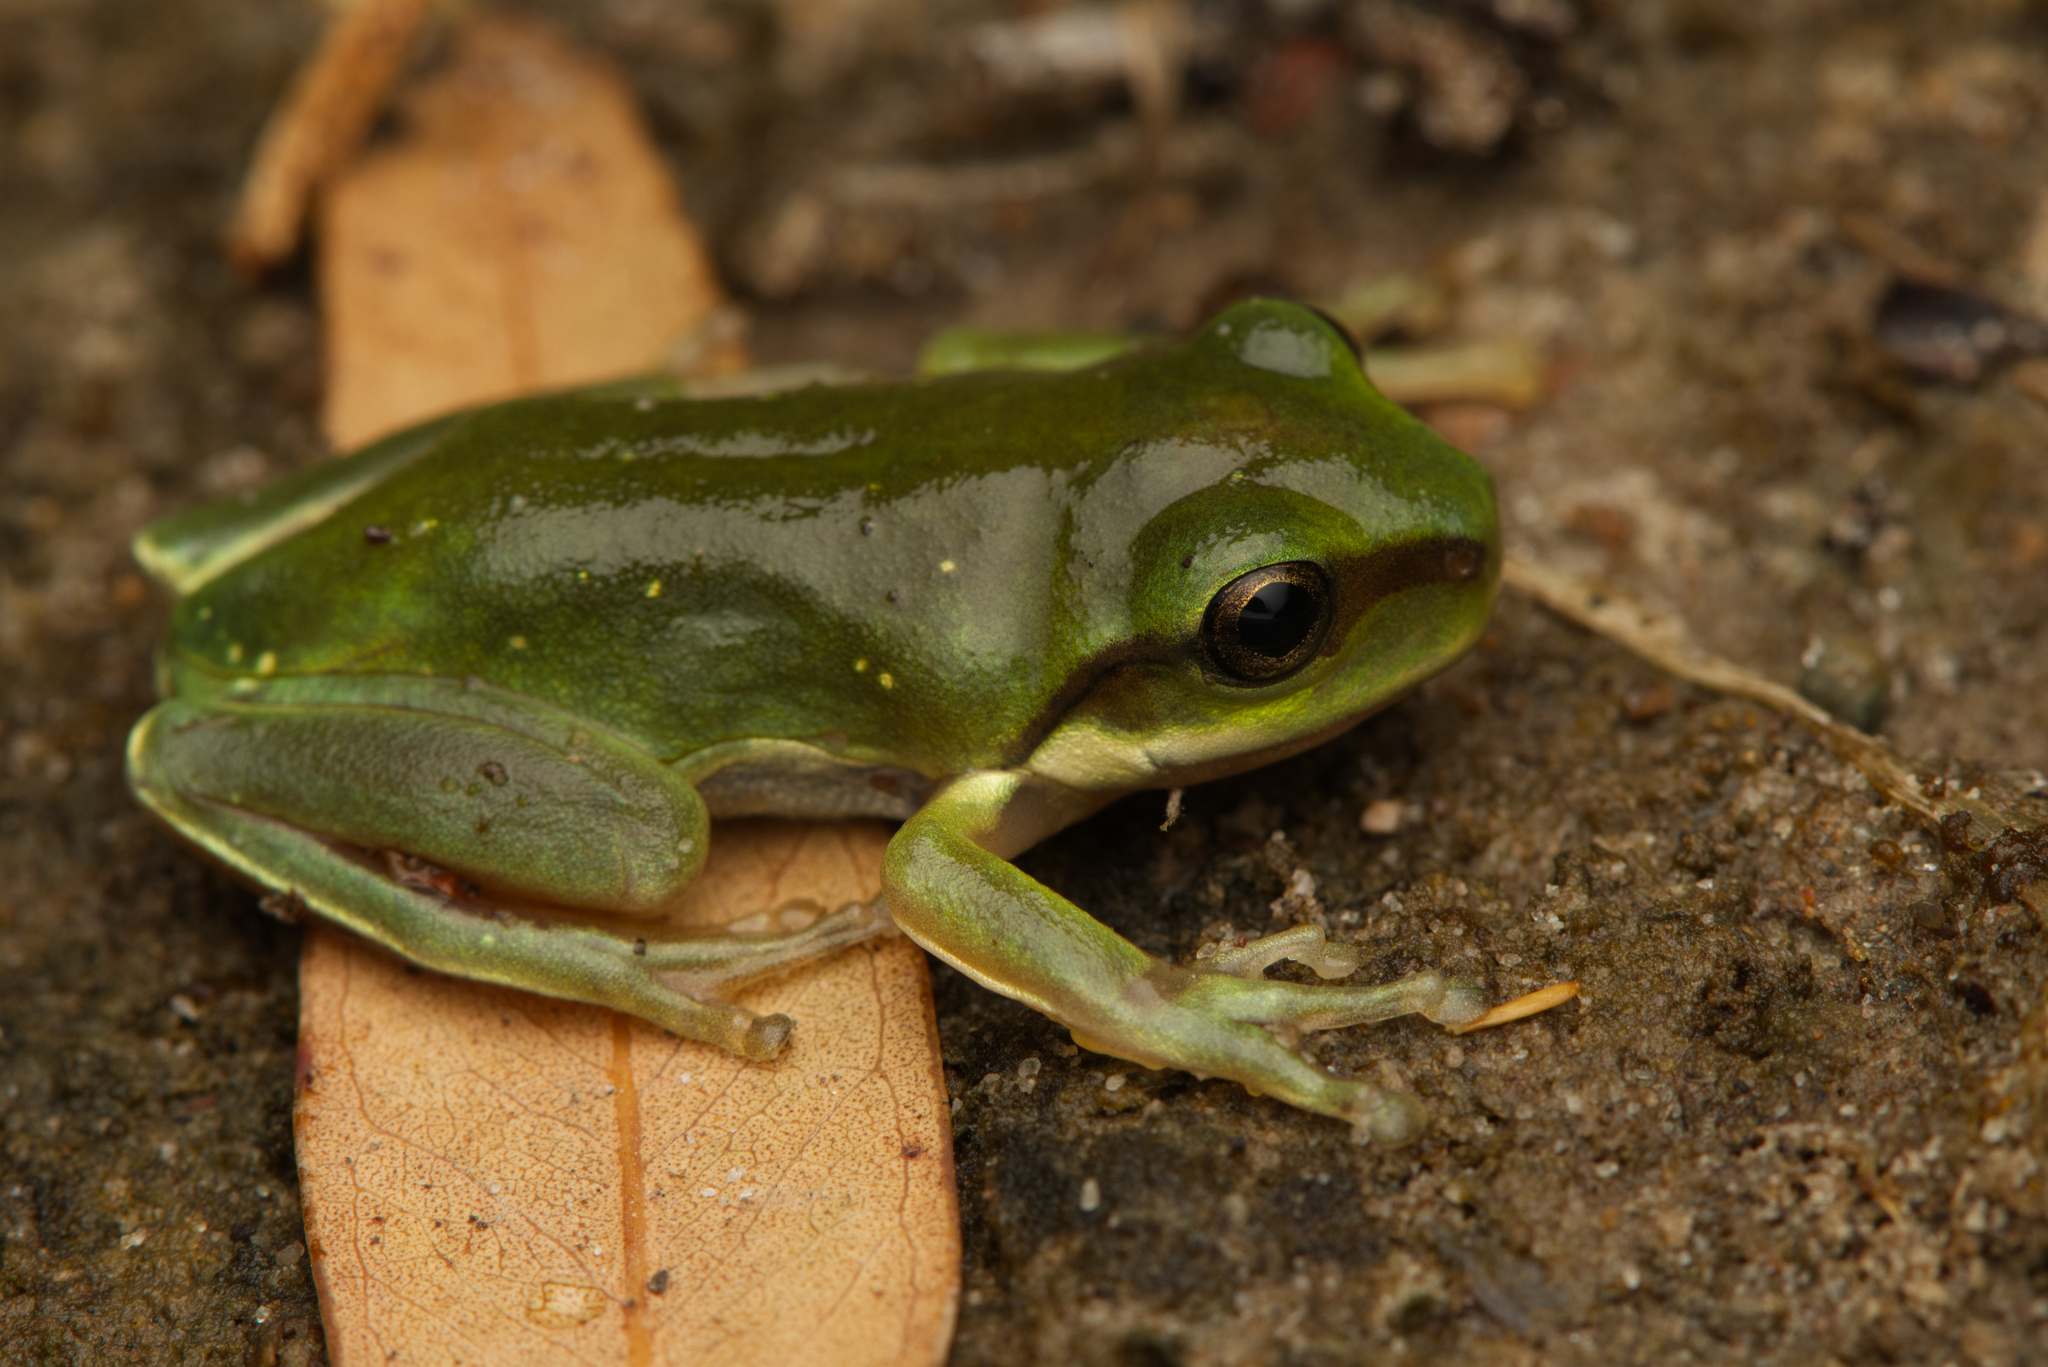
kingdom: Animalia
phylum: Chordata
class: Amphibia
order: Anura
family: Pelodryadidae
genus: Ranoidea
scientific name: Ranoidea caerulea
